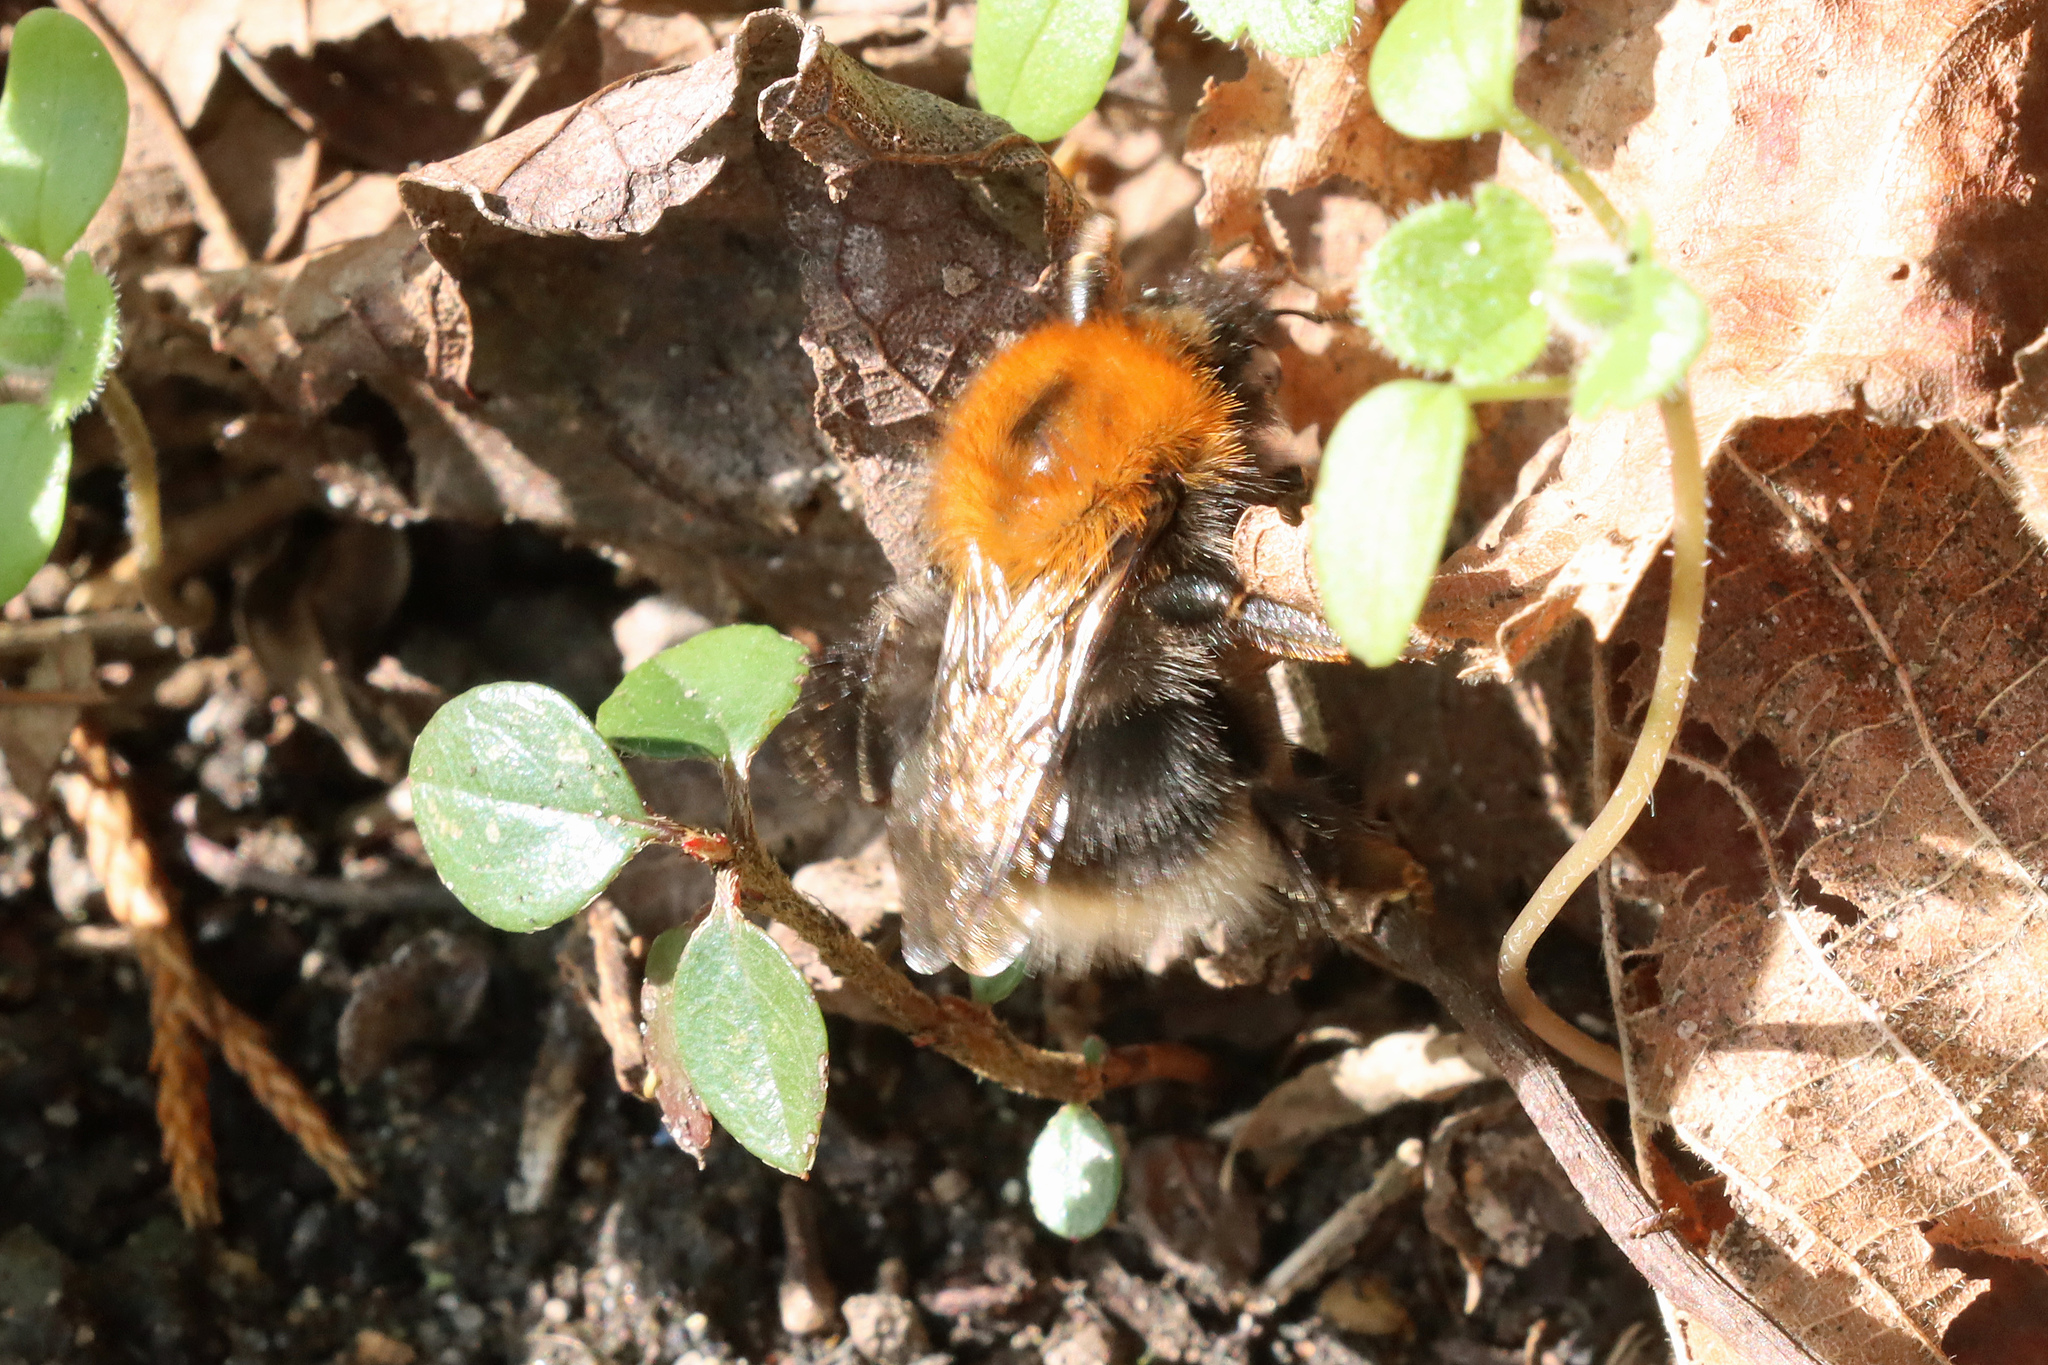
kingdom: Animalia
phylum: Arthropoda
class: Insecta
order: Hymenoptera
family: Apidae
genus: Bombus
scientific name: Bombus hypnorum
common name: New garden bumblebee
